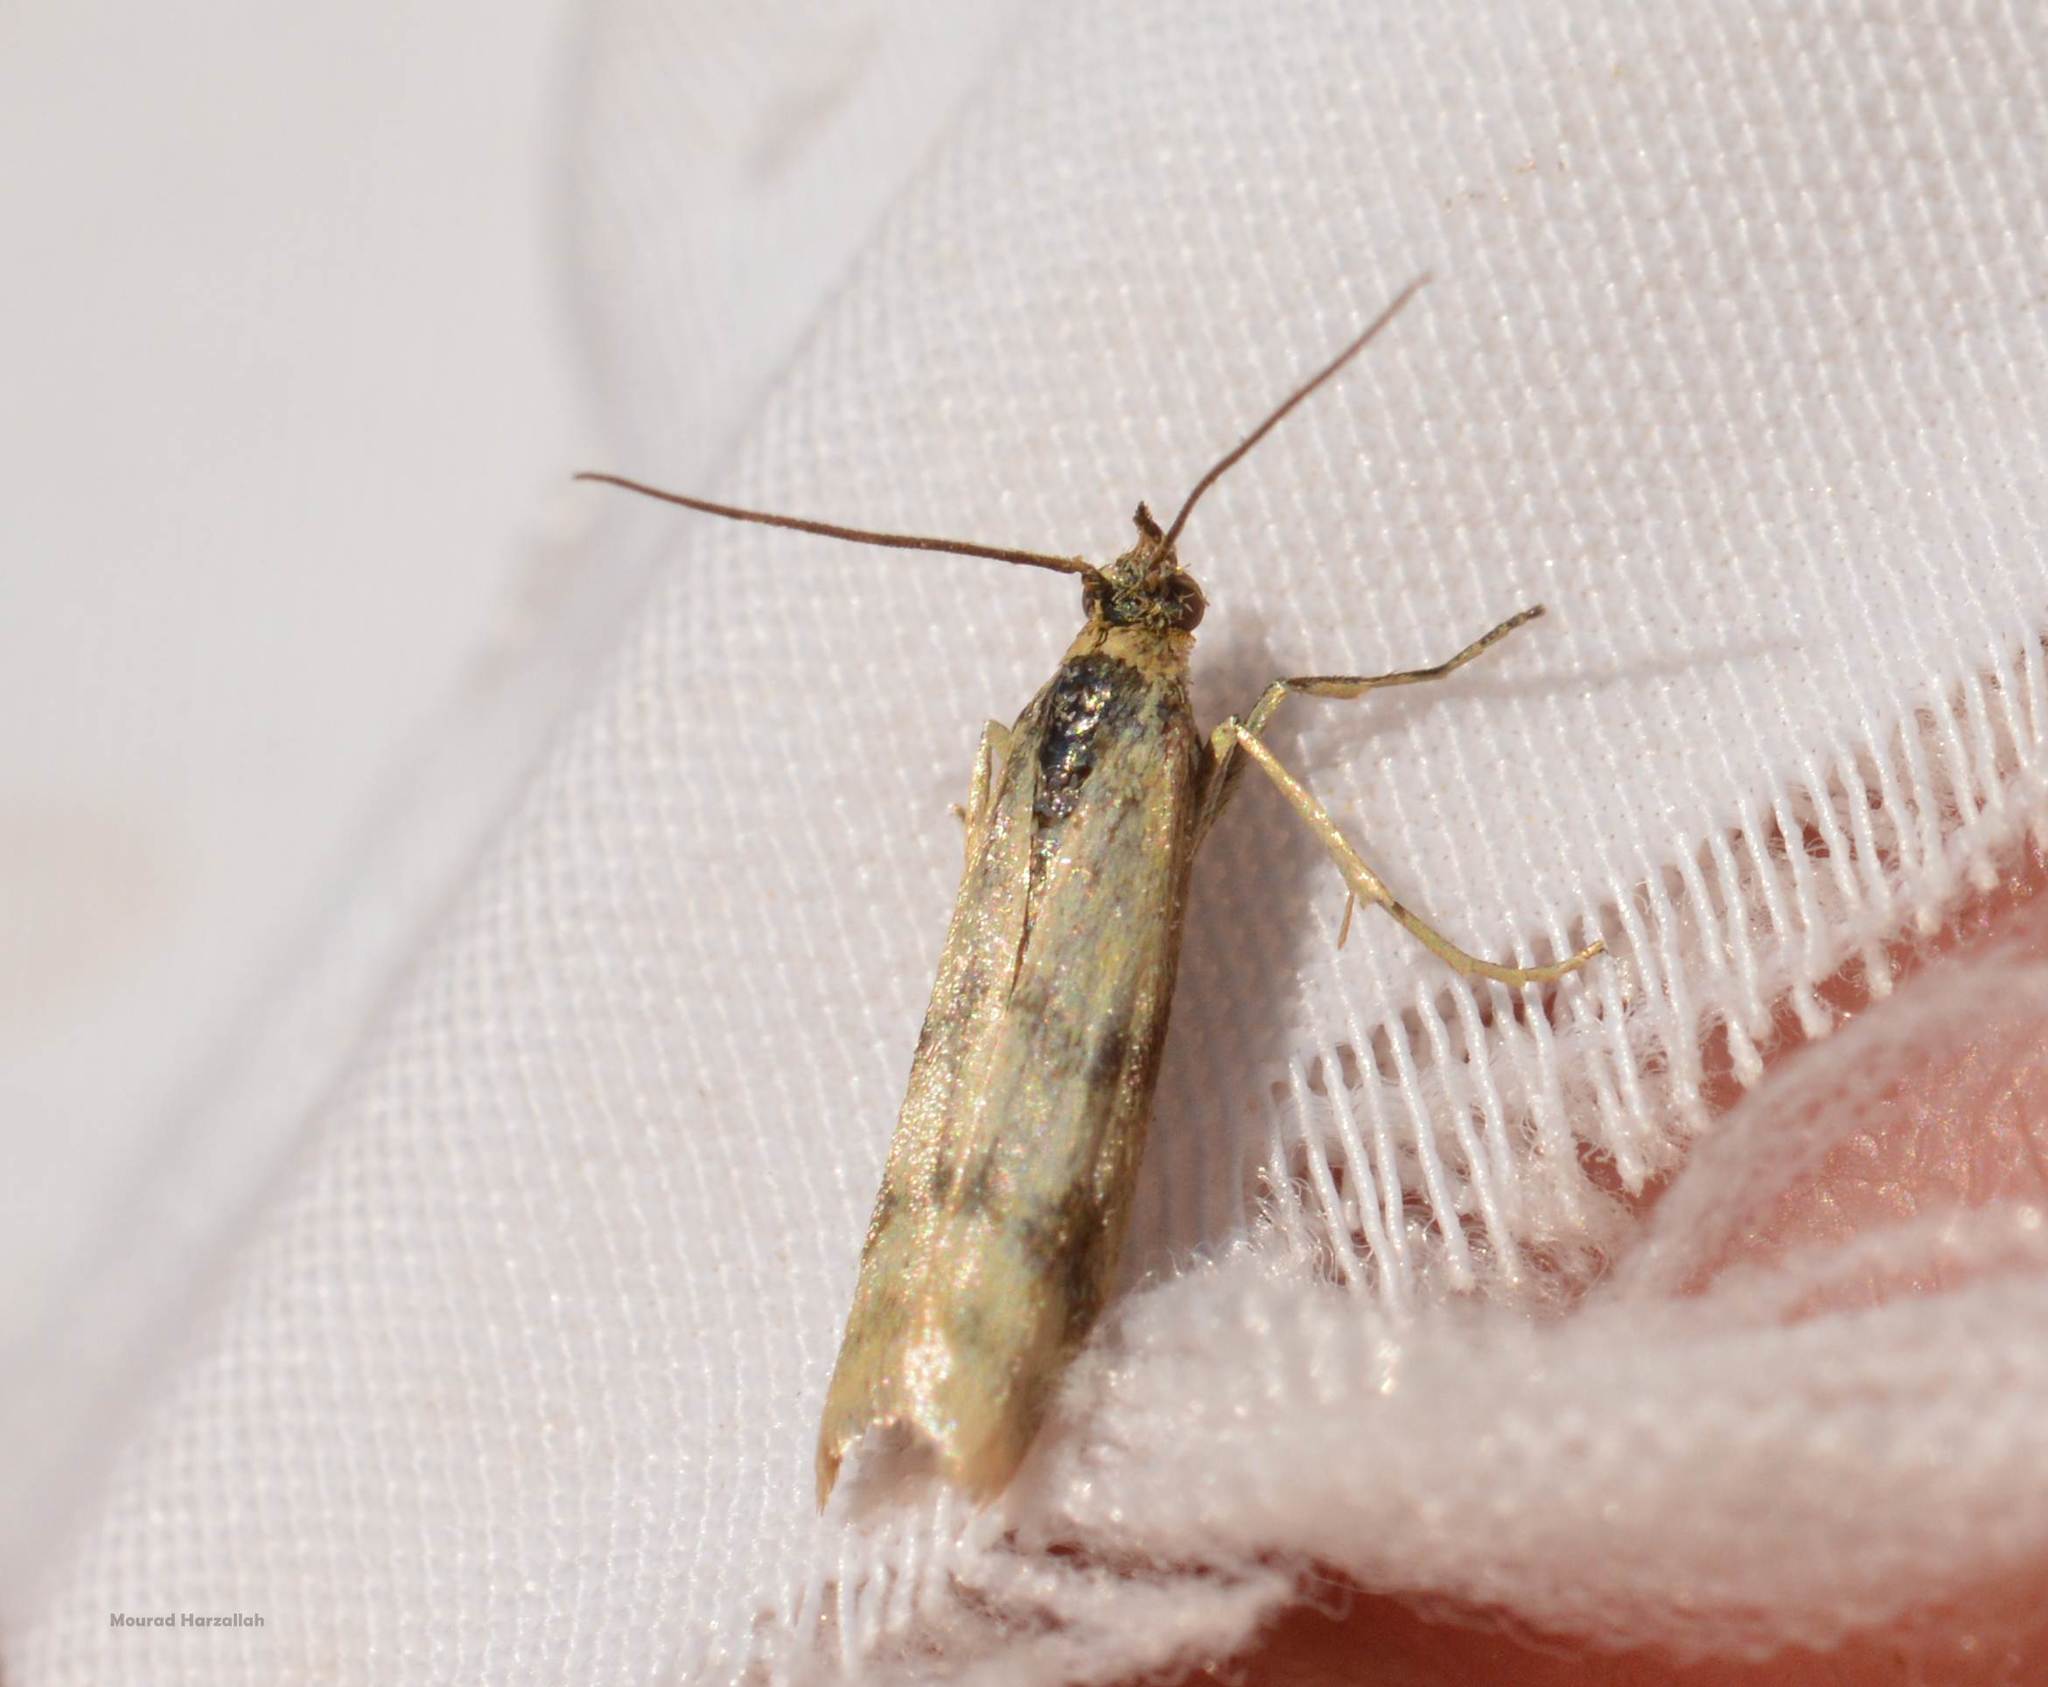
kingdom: Animalia
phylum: Arthropoda
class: Insecta
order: Lepidoptera
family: Pyralidae
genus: Homoeosoma
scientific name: Homoeosoma sinuella
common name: Twin-barred knot-horn
